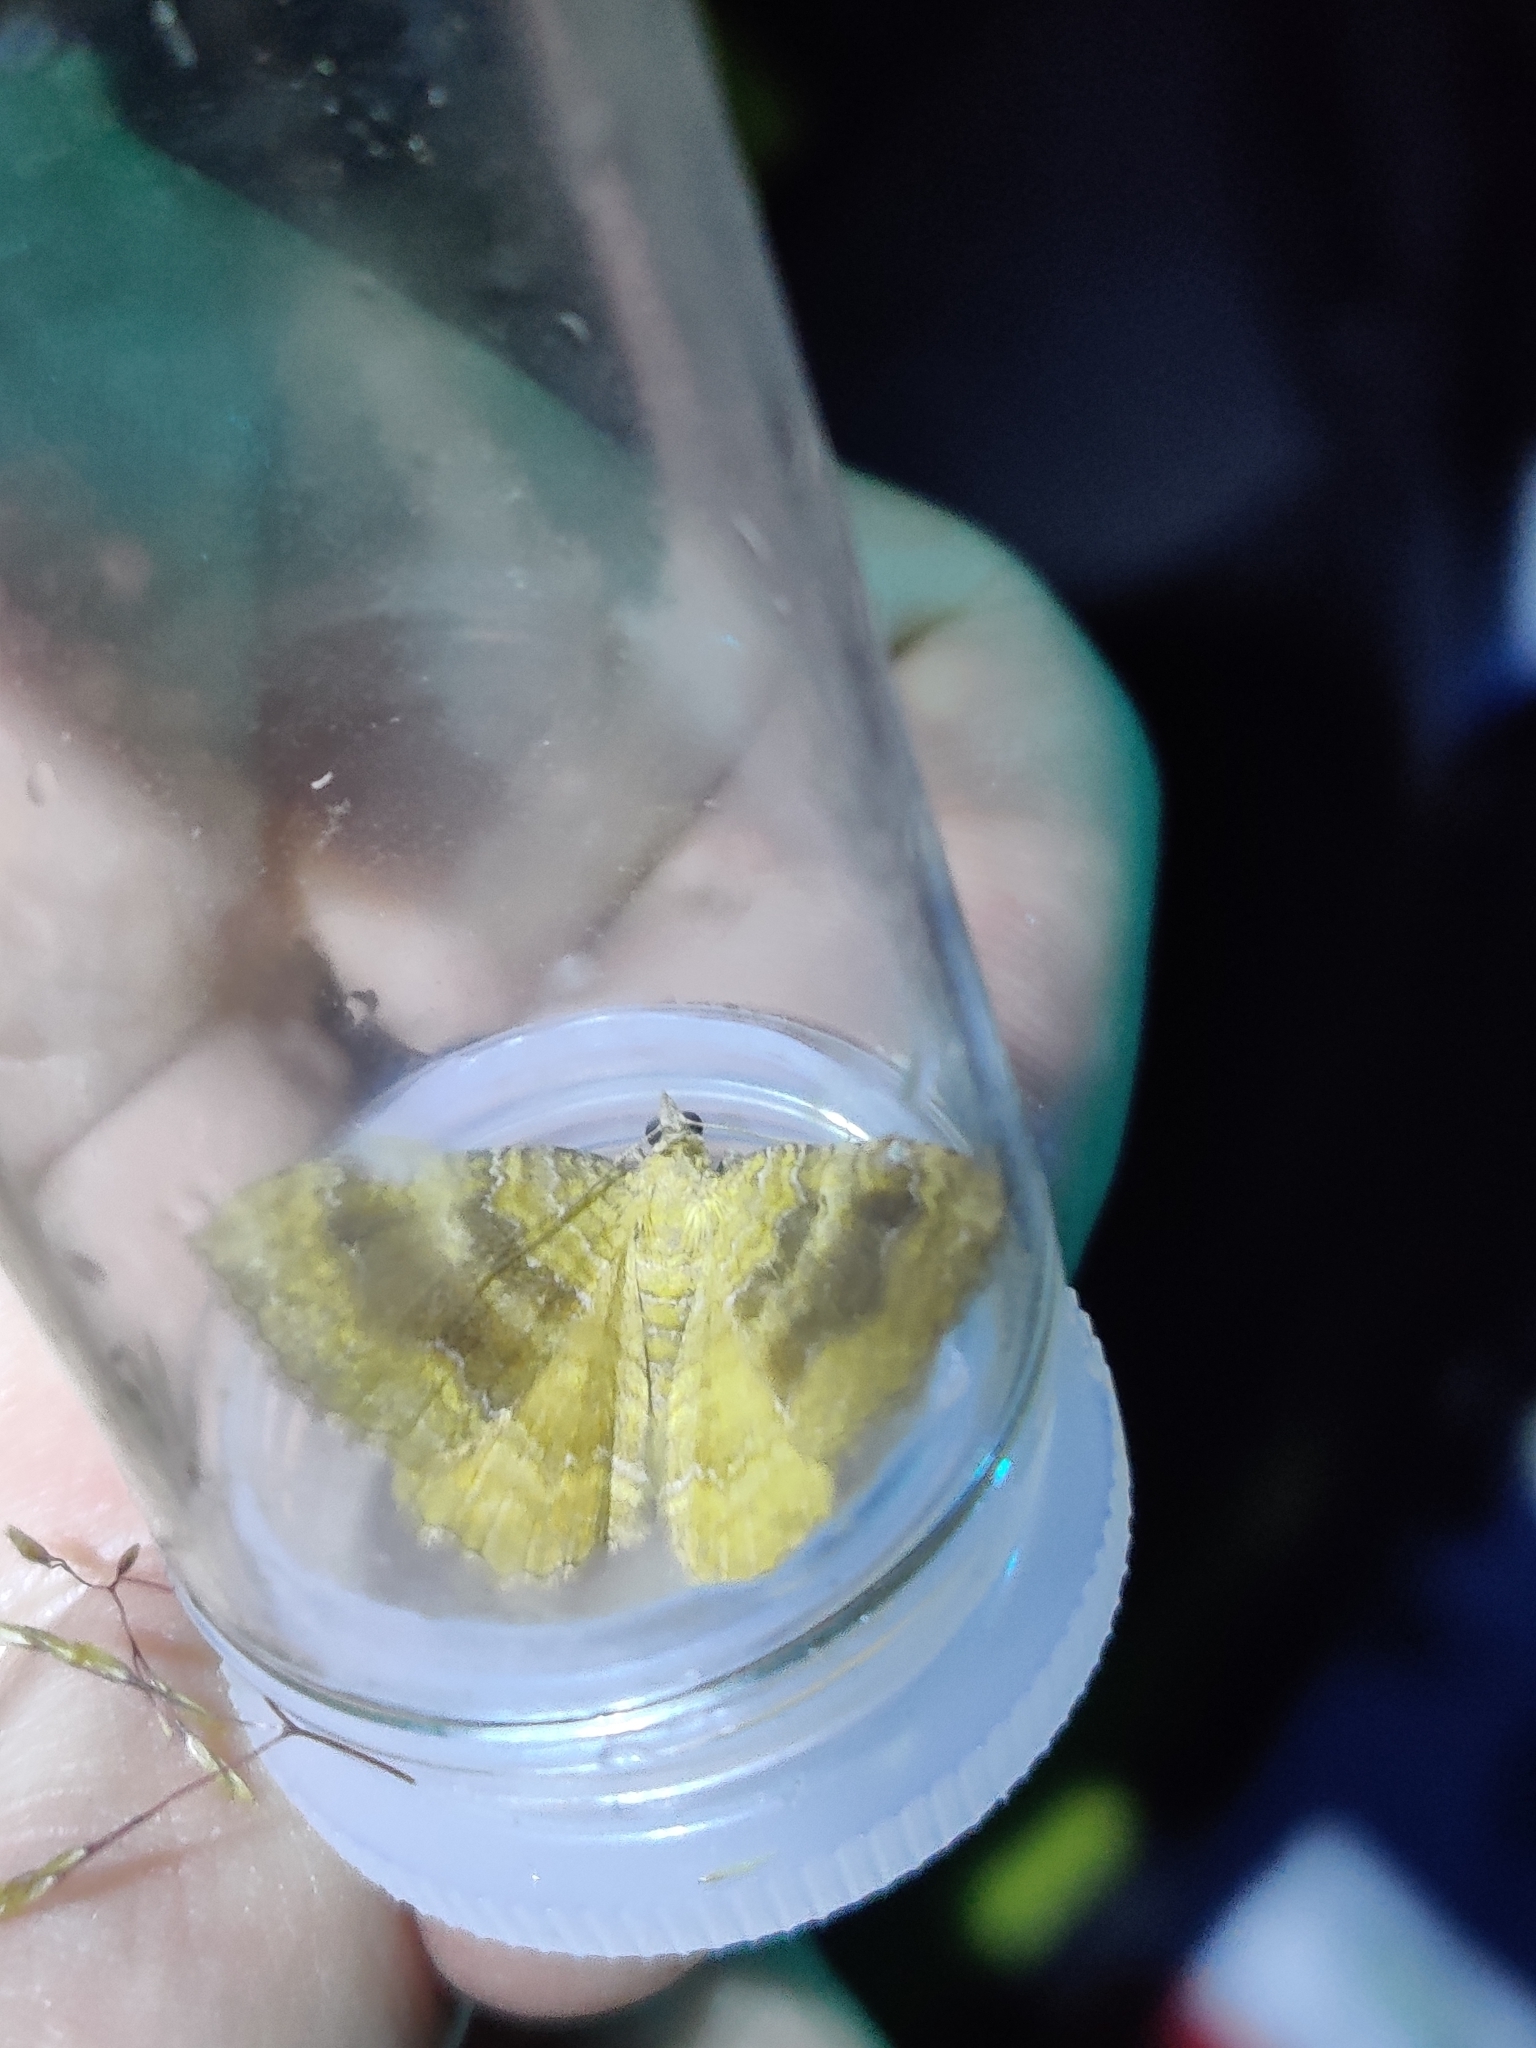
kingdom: Animalia
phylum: Arthropoda
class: Insecta
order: Lepidoptera
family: Geometridae
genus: Camptogramma
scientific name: Camptogramma bilineata
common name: Yellow shell
